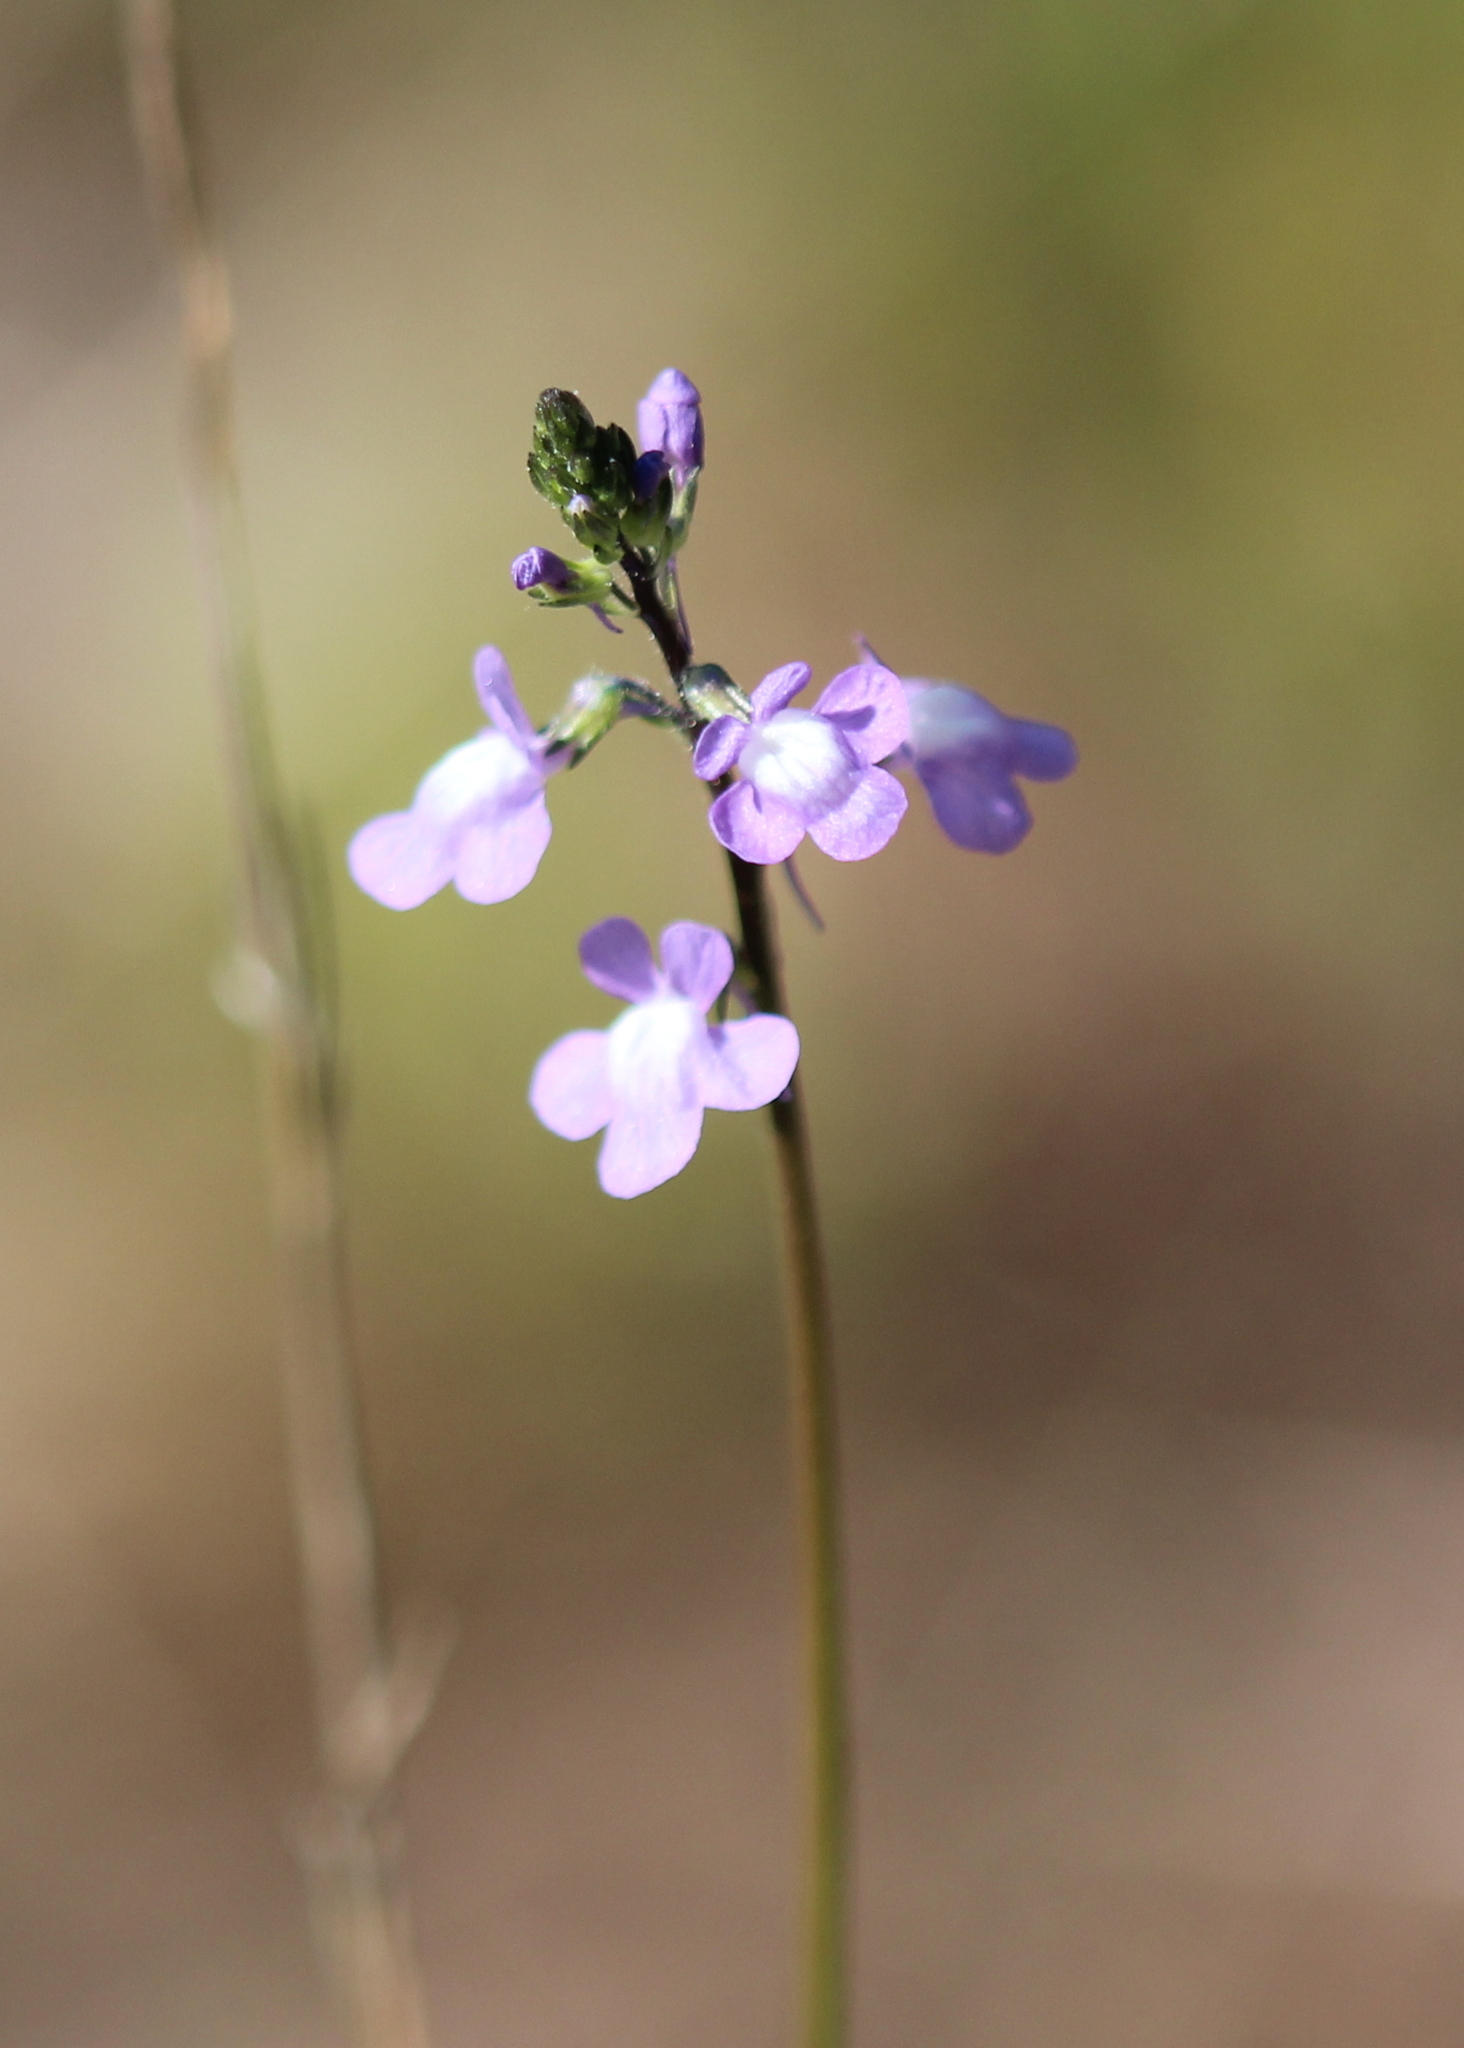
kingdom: Plantae
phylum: Tracheophyta
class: Magnoliopsida
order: Lamiales
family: Plantaginaceae
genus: Nuttallanthus
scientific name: Nuttallanthus canadensis
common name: Blue toadflax
